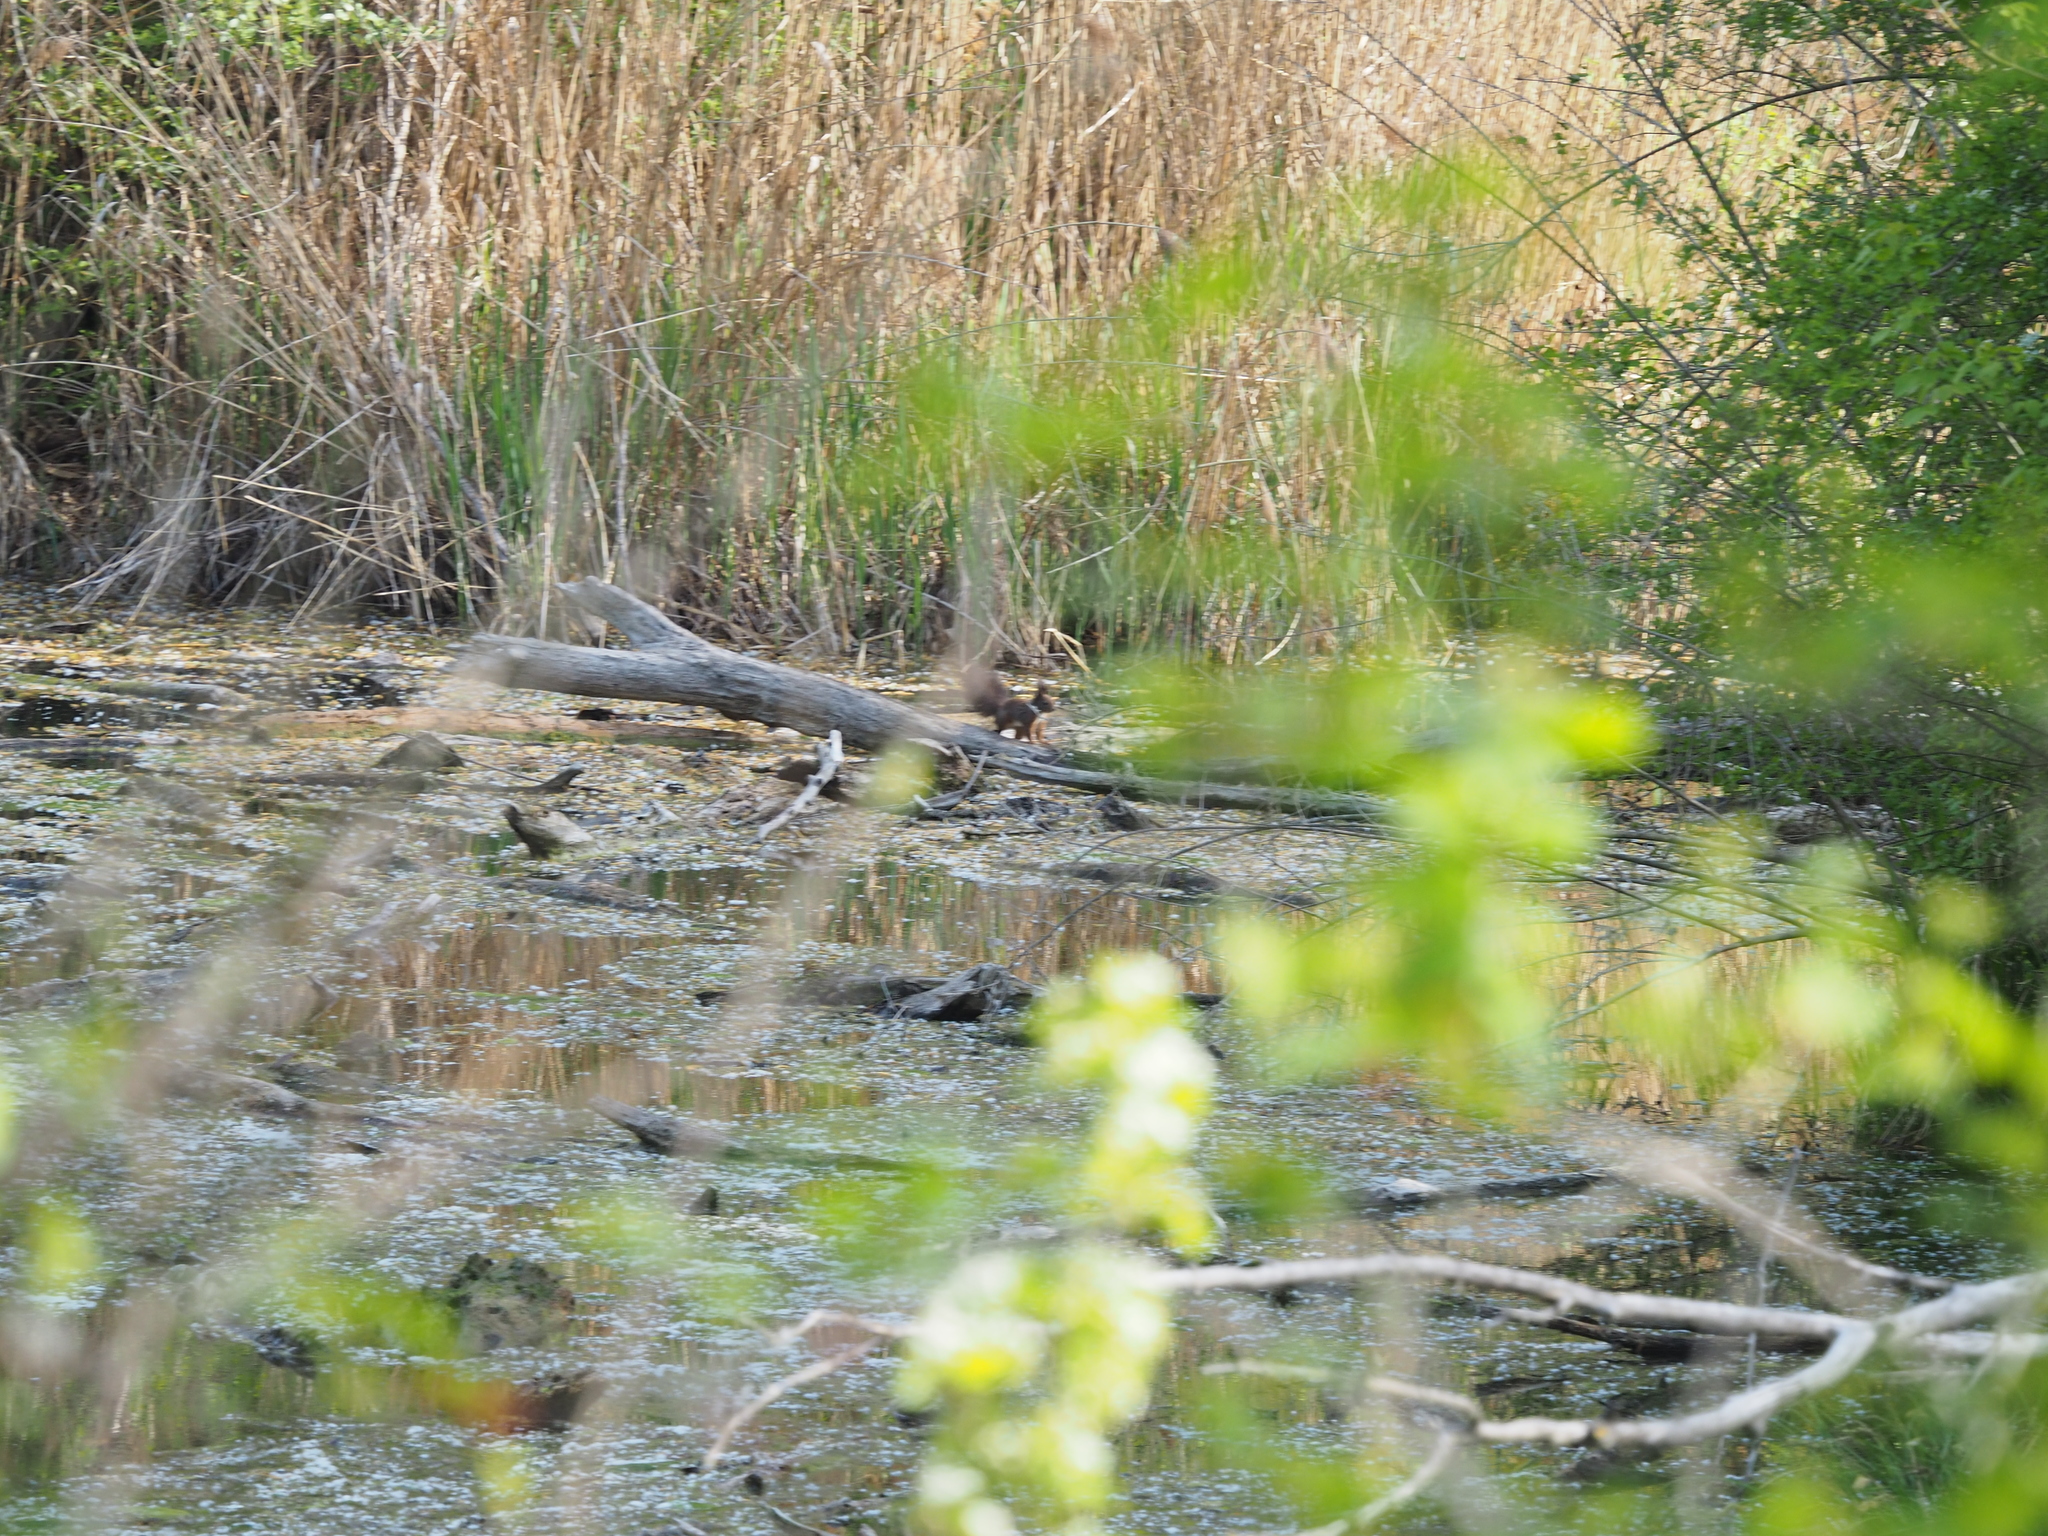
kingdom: Animalia
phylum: Chordata
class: Mammalia
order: Rodentia
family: Sciuridae
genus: Sciurus
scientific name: Sciurus vulgaris
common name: Eurasian red squirrel
